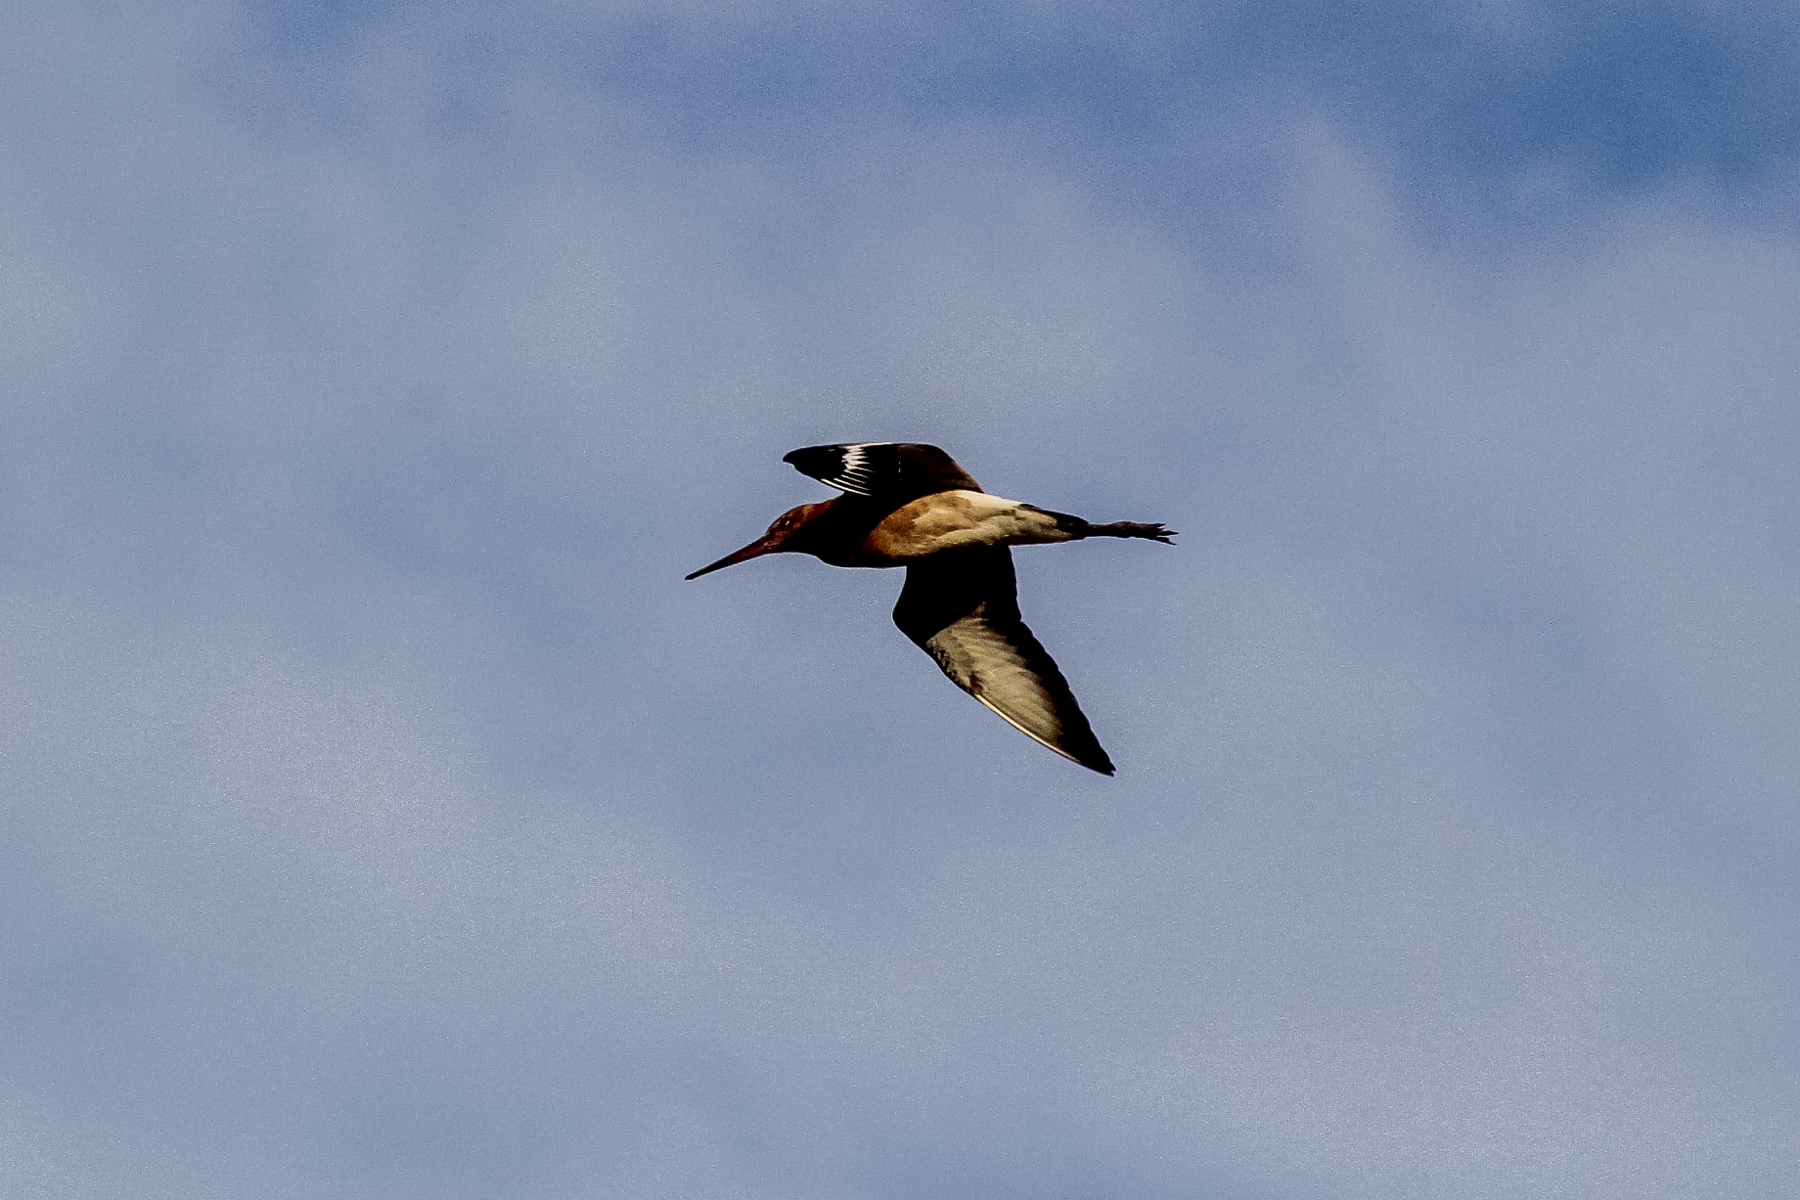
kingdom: Animalia
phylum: Chordata
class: Aves
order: Charadriiformes
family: Scolopacidae
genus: Limosa
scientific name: Limosa limosa
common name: Black-tailed godwit
